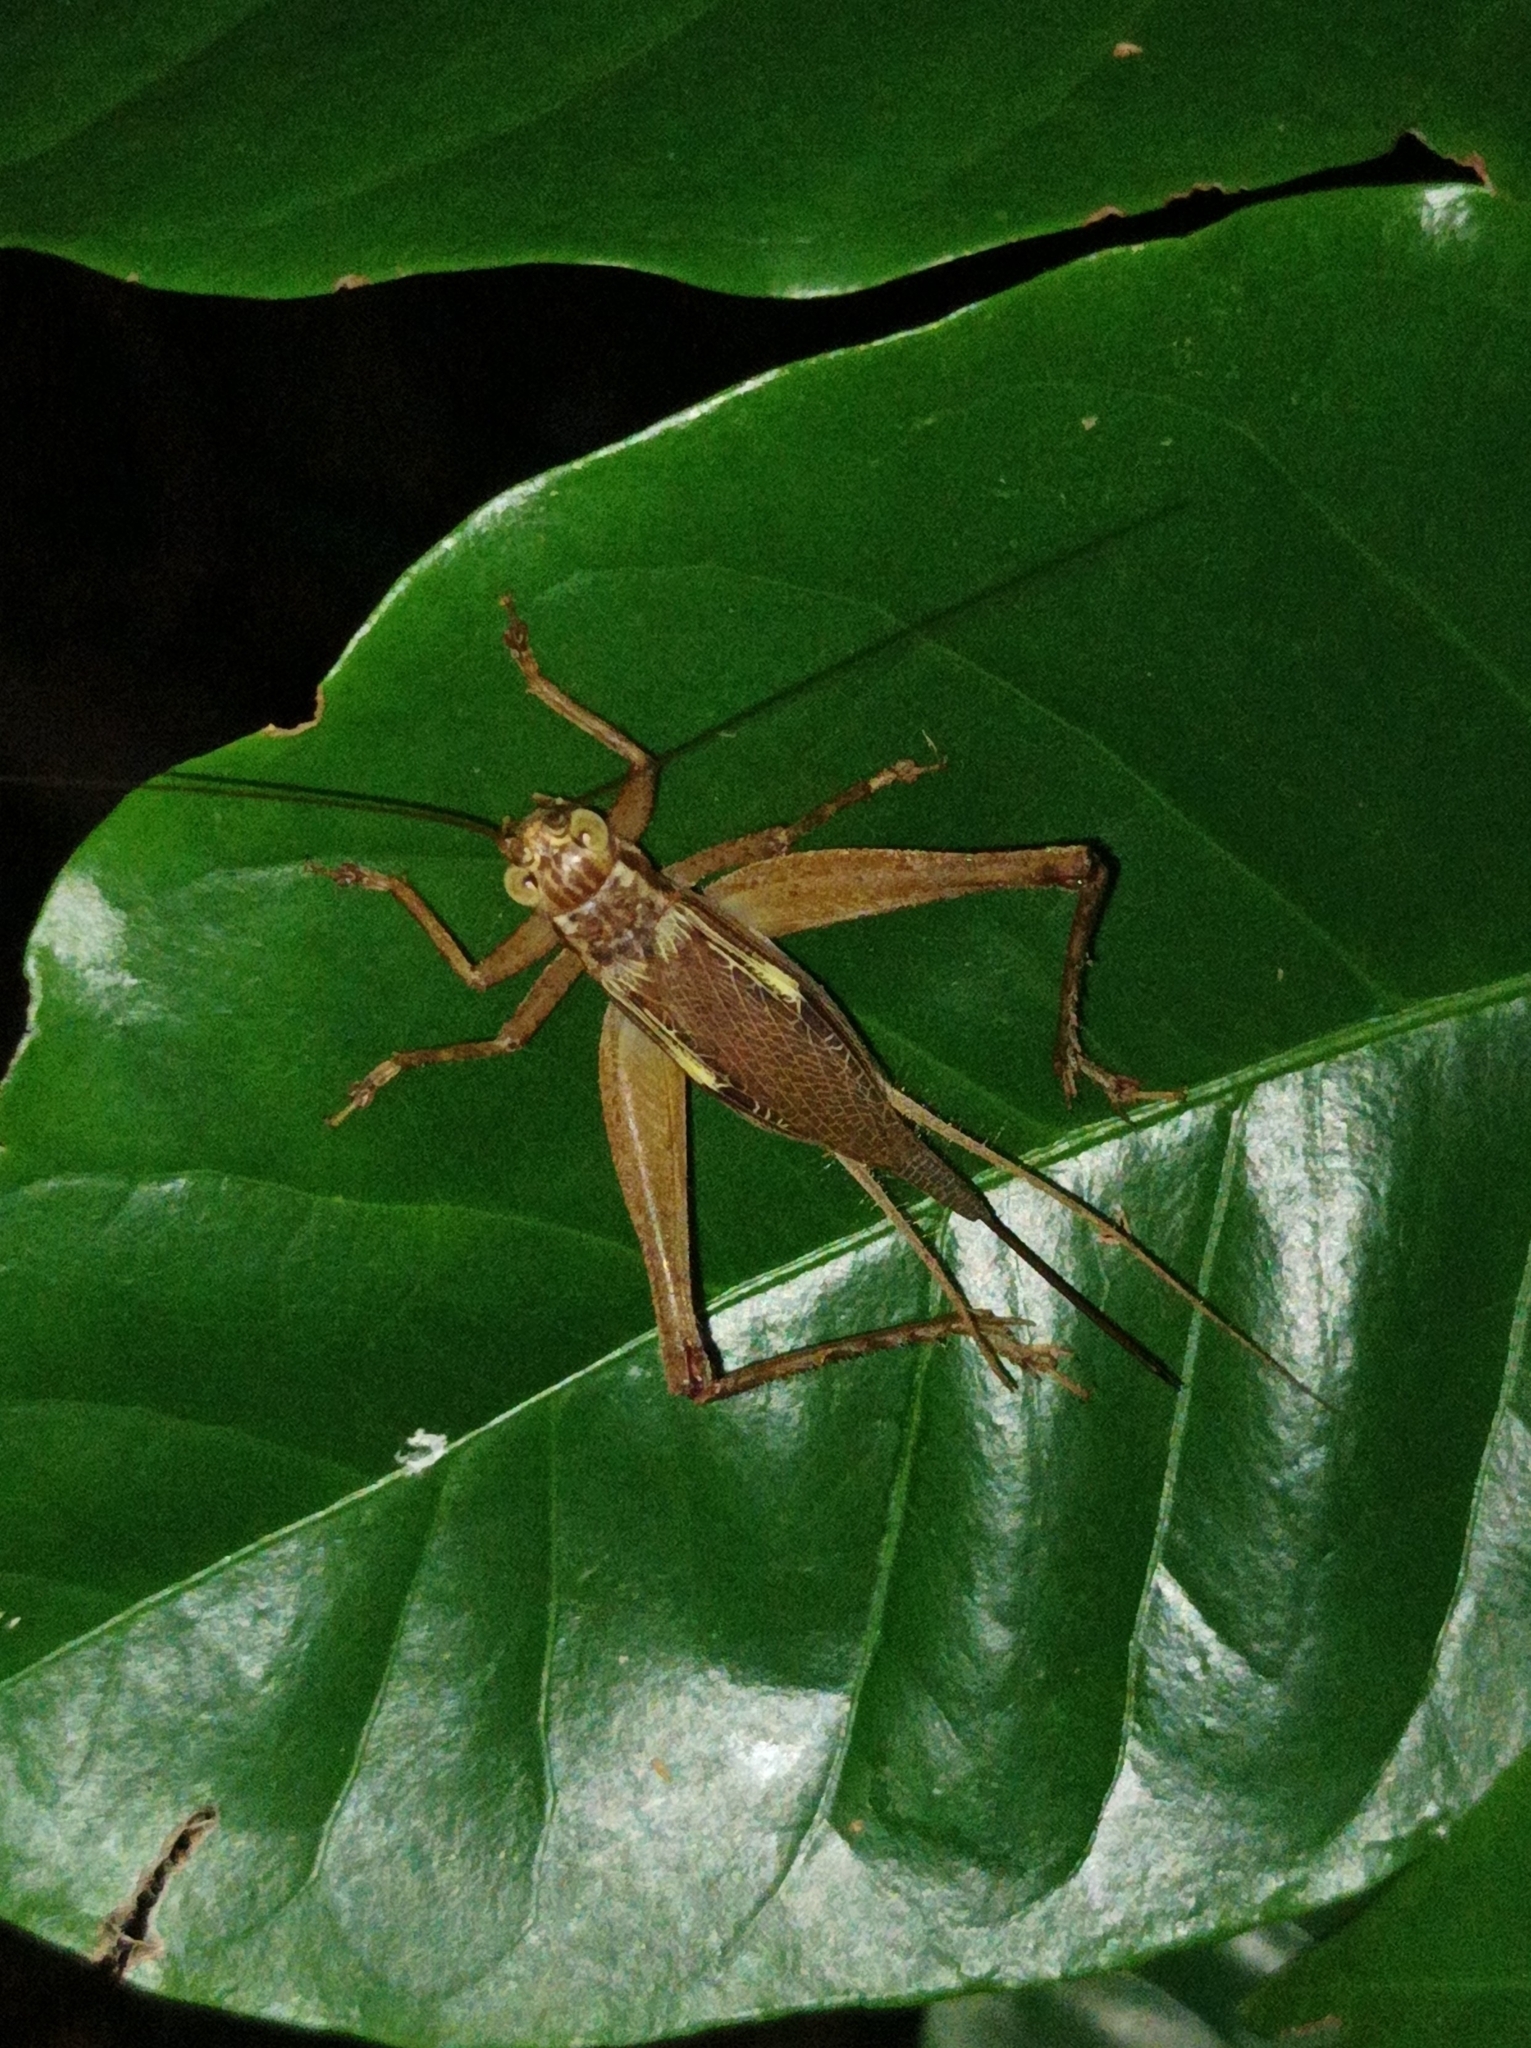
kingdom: Animalia
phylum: Arthropoda
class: Insecta
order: Orthoptera
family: Gryllidae
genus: Cardiodactylus
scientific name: Cardiodactylus novaeguineae
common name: Sad cricket
